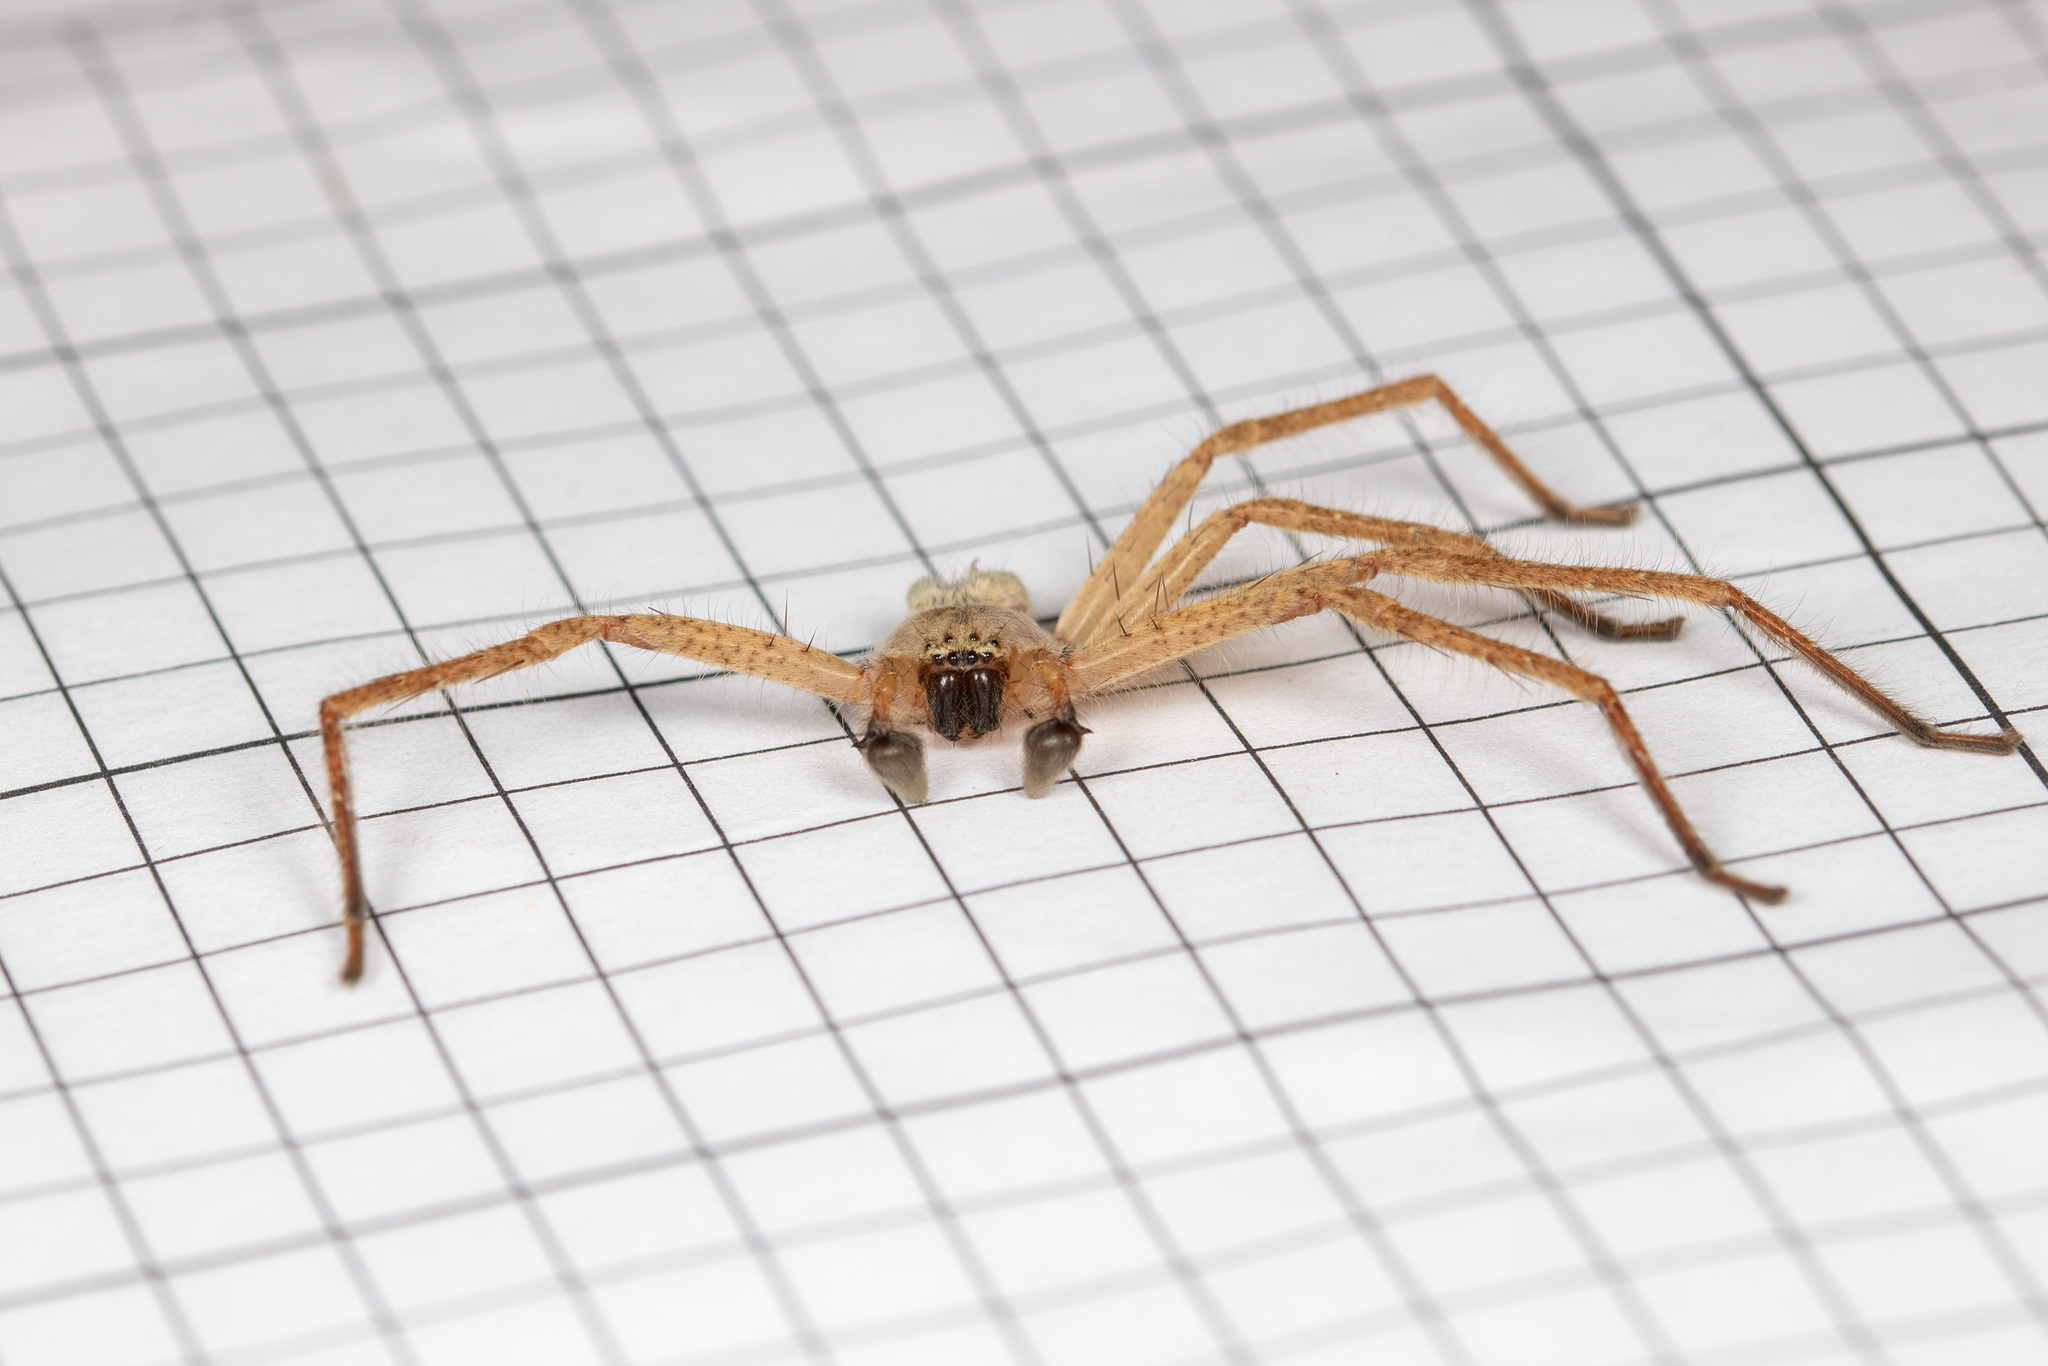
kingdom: Animalia
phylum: Arthropoda
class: Arachnida
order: Araneae
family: Sparassidae
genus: Olios
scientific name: Olios sericeus
